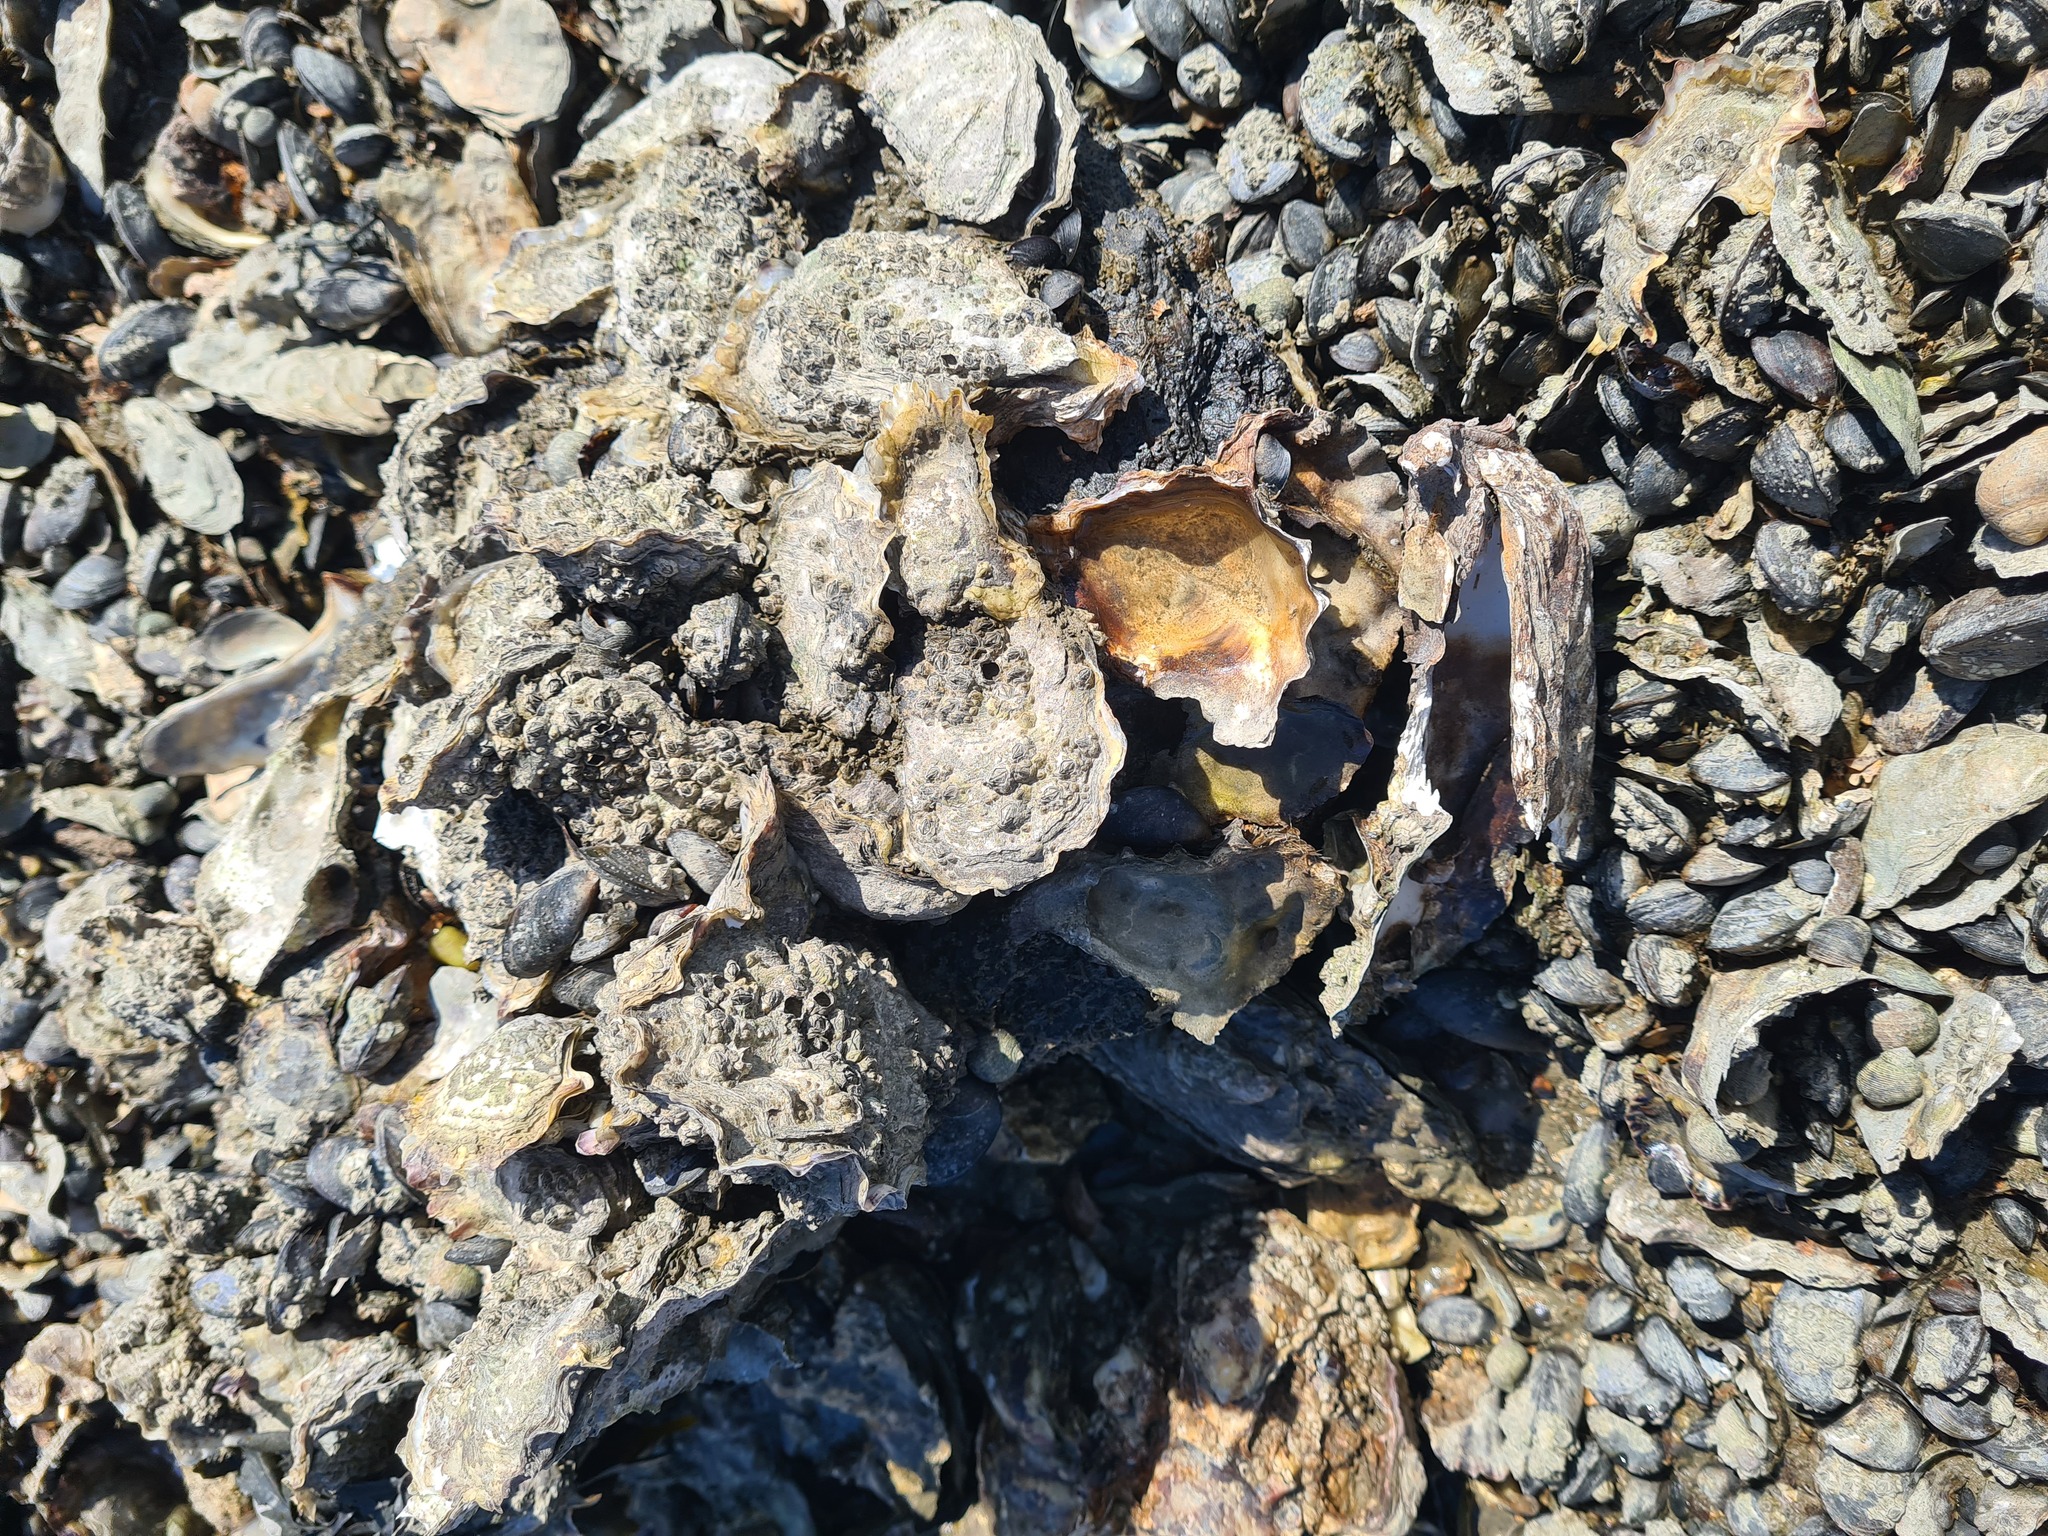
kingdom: Animalia
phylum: Mollusca
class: Bivalvia
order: Ostreida
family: Ostreidae
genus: Magallana
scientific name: Magallana gigas
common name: Pacific oyster
